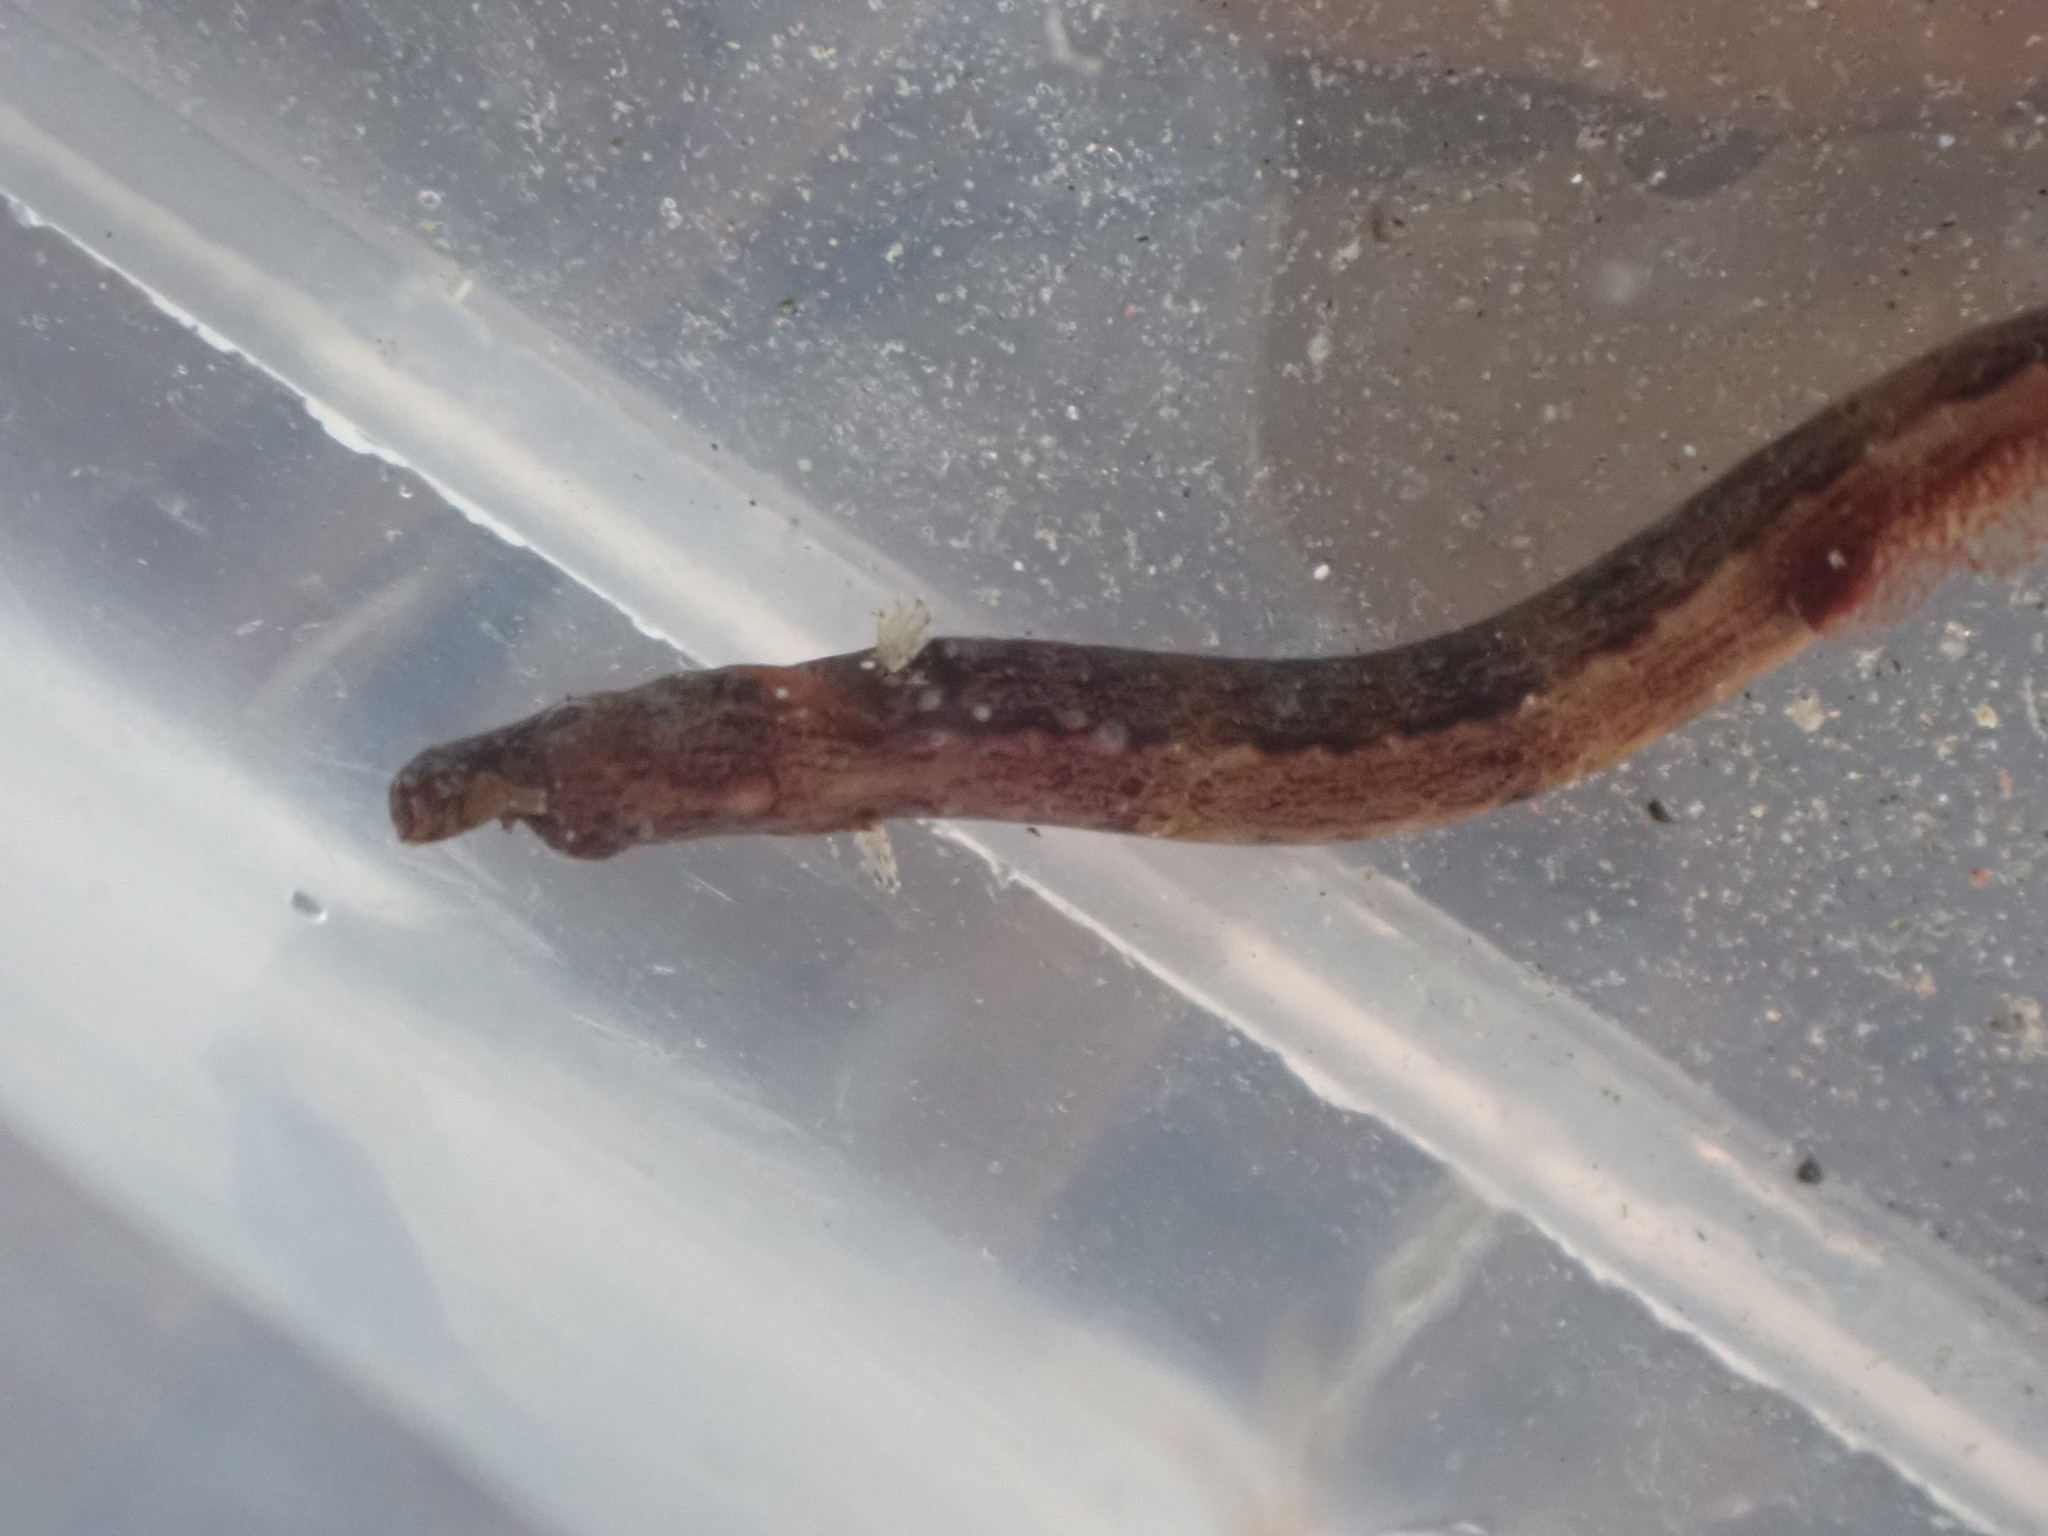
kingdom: Animalia
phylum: Chordata
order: Syngnathiformes
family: Syngnathidae
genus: Lissocampus
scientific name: Lissocampus filum
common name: Shortsnout pipefish
